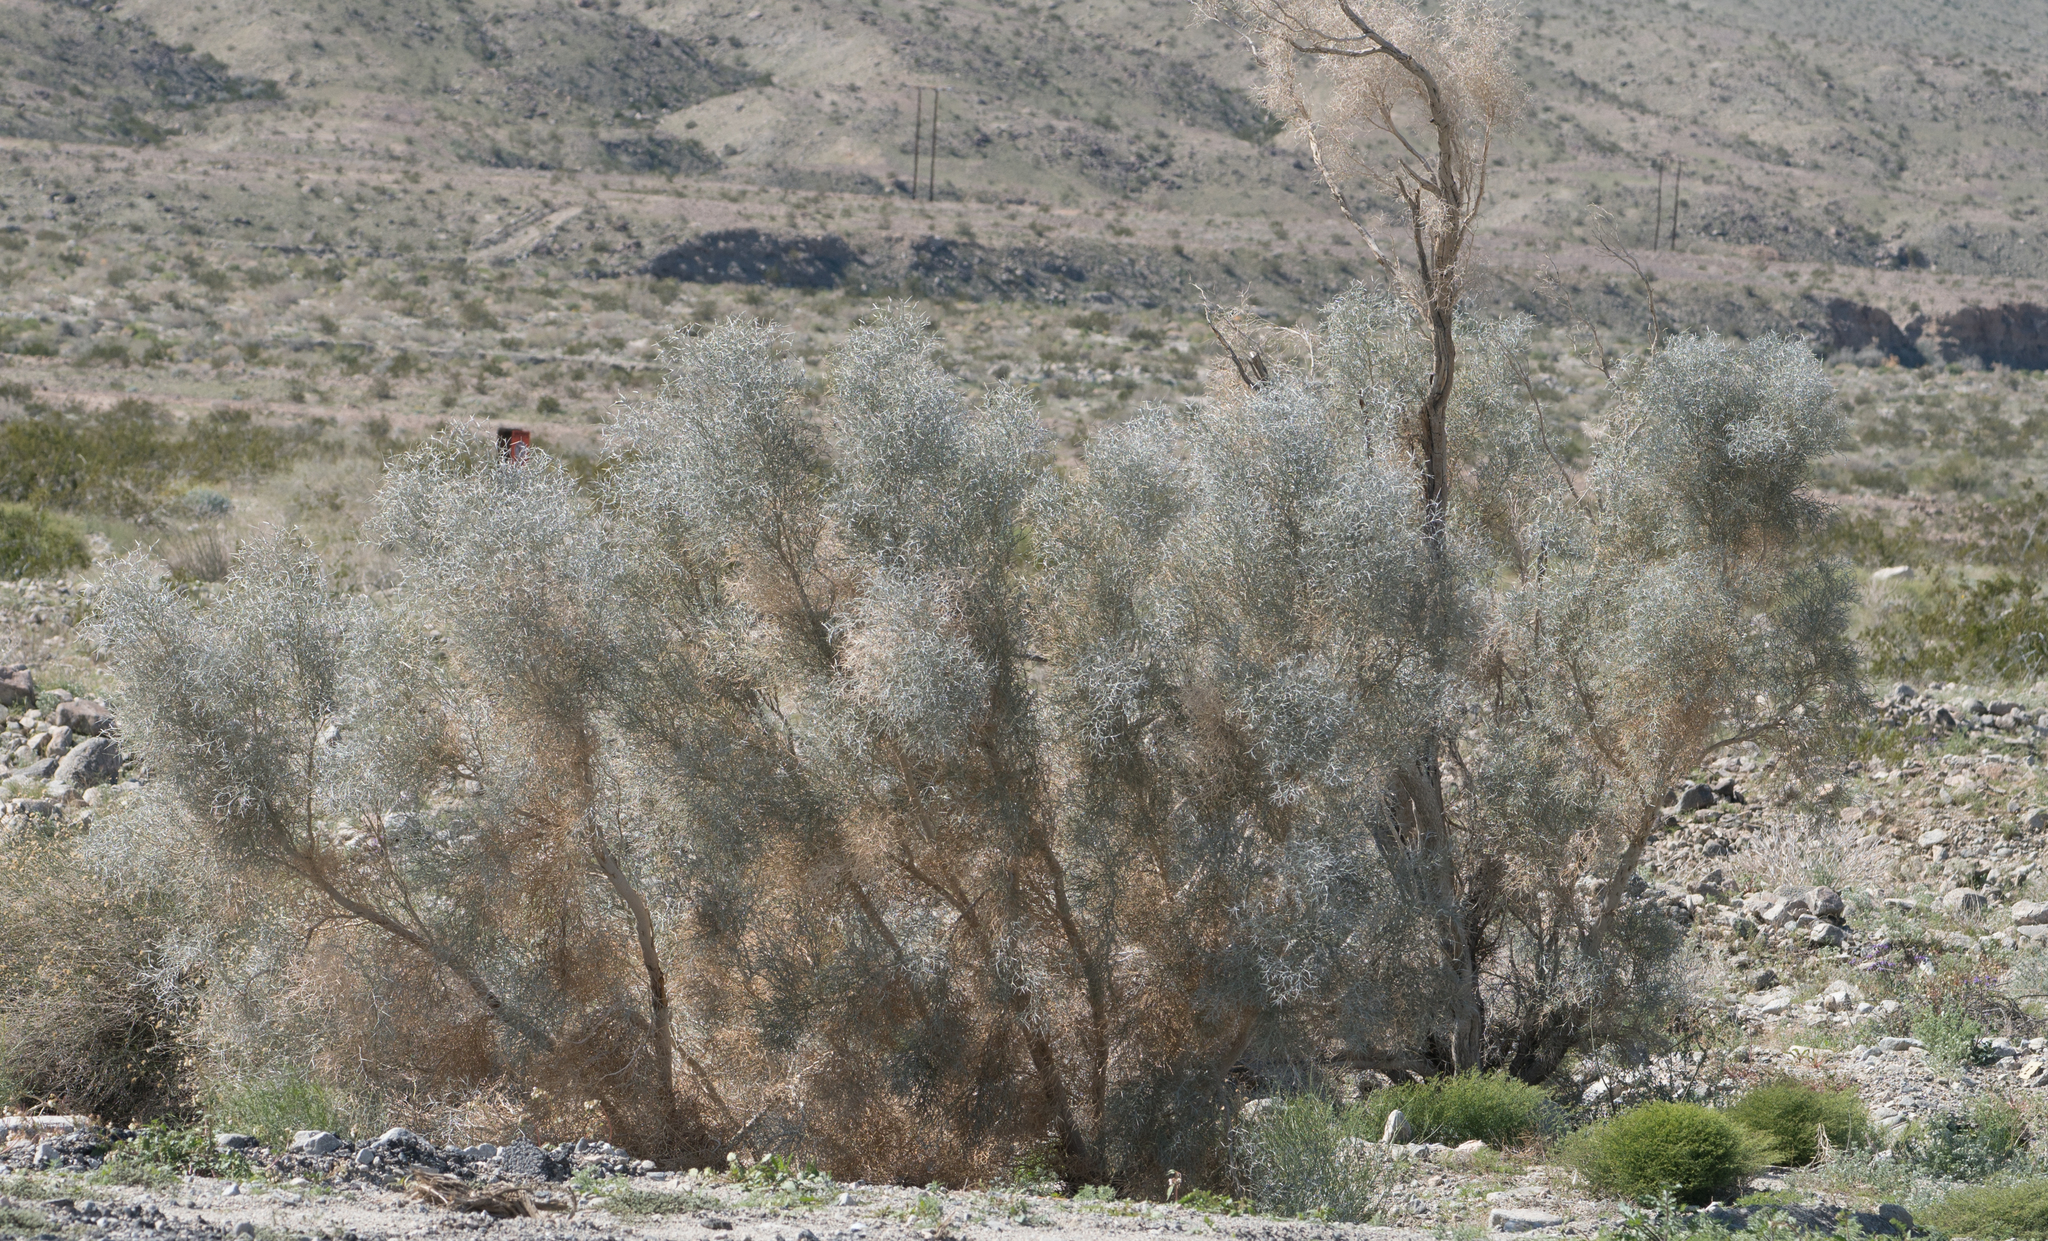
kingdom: Plantae
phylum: Tracheophyta
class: Magnoliopsida
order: Fabales
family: Fabaceae
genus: Psorothamnus
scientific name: Psorothamnus spinosus
